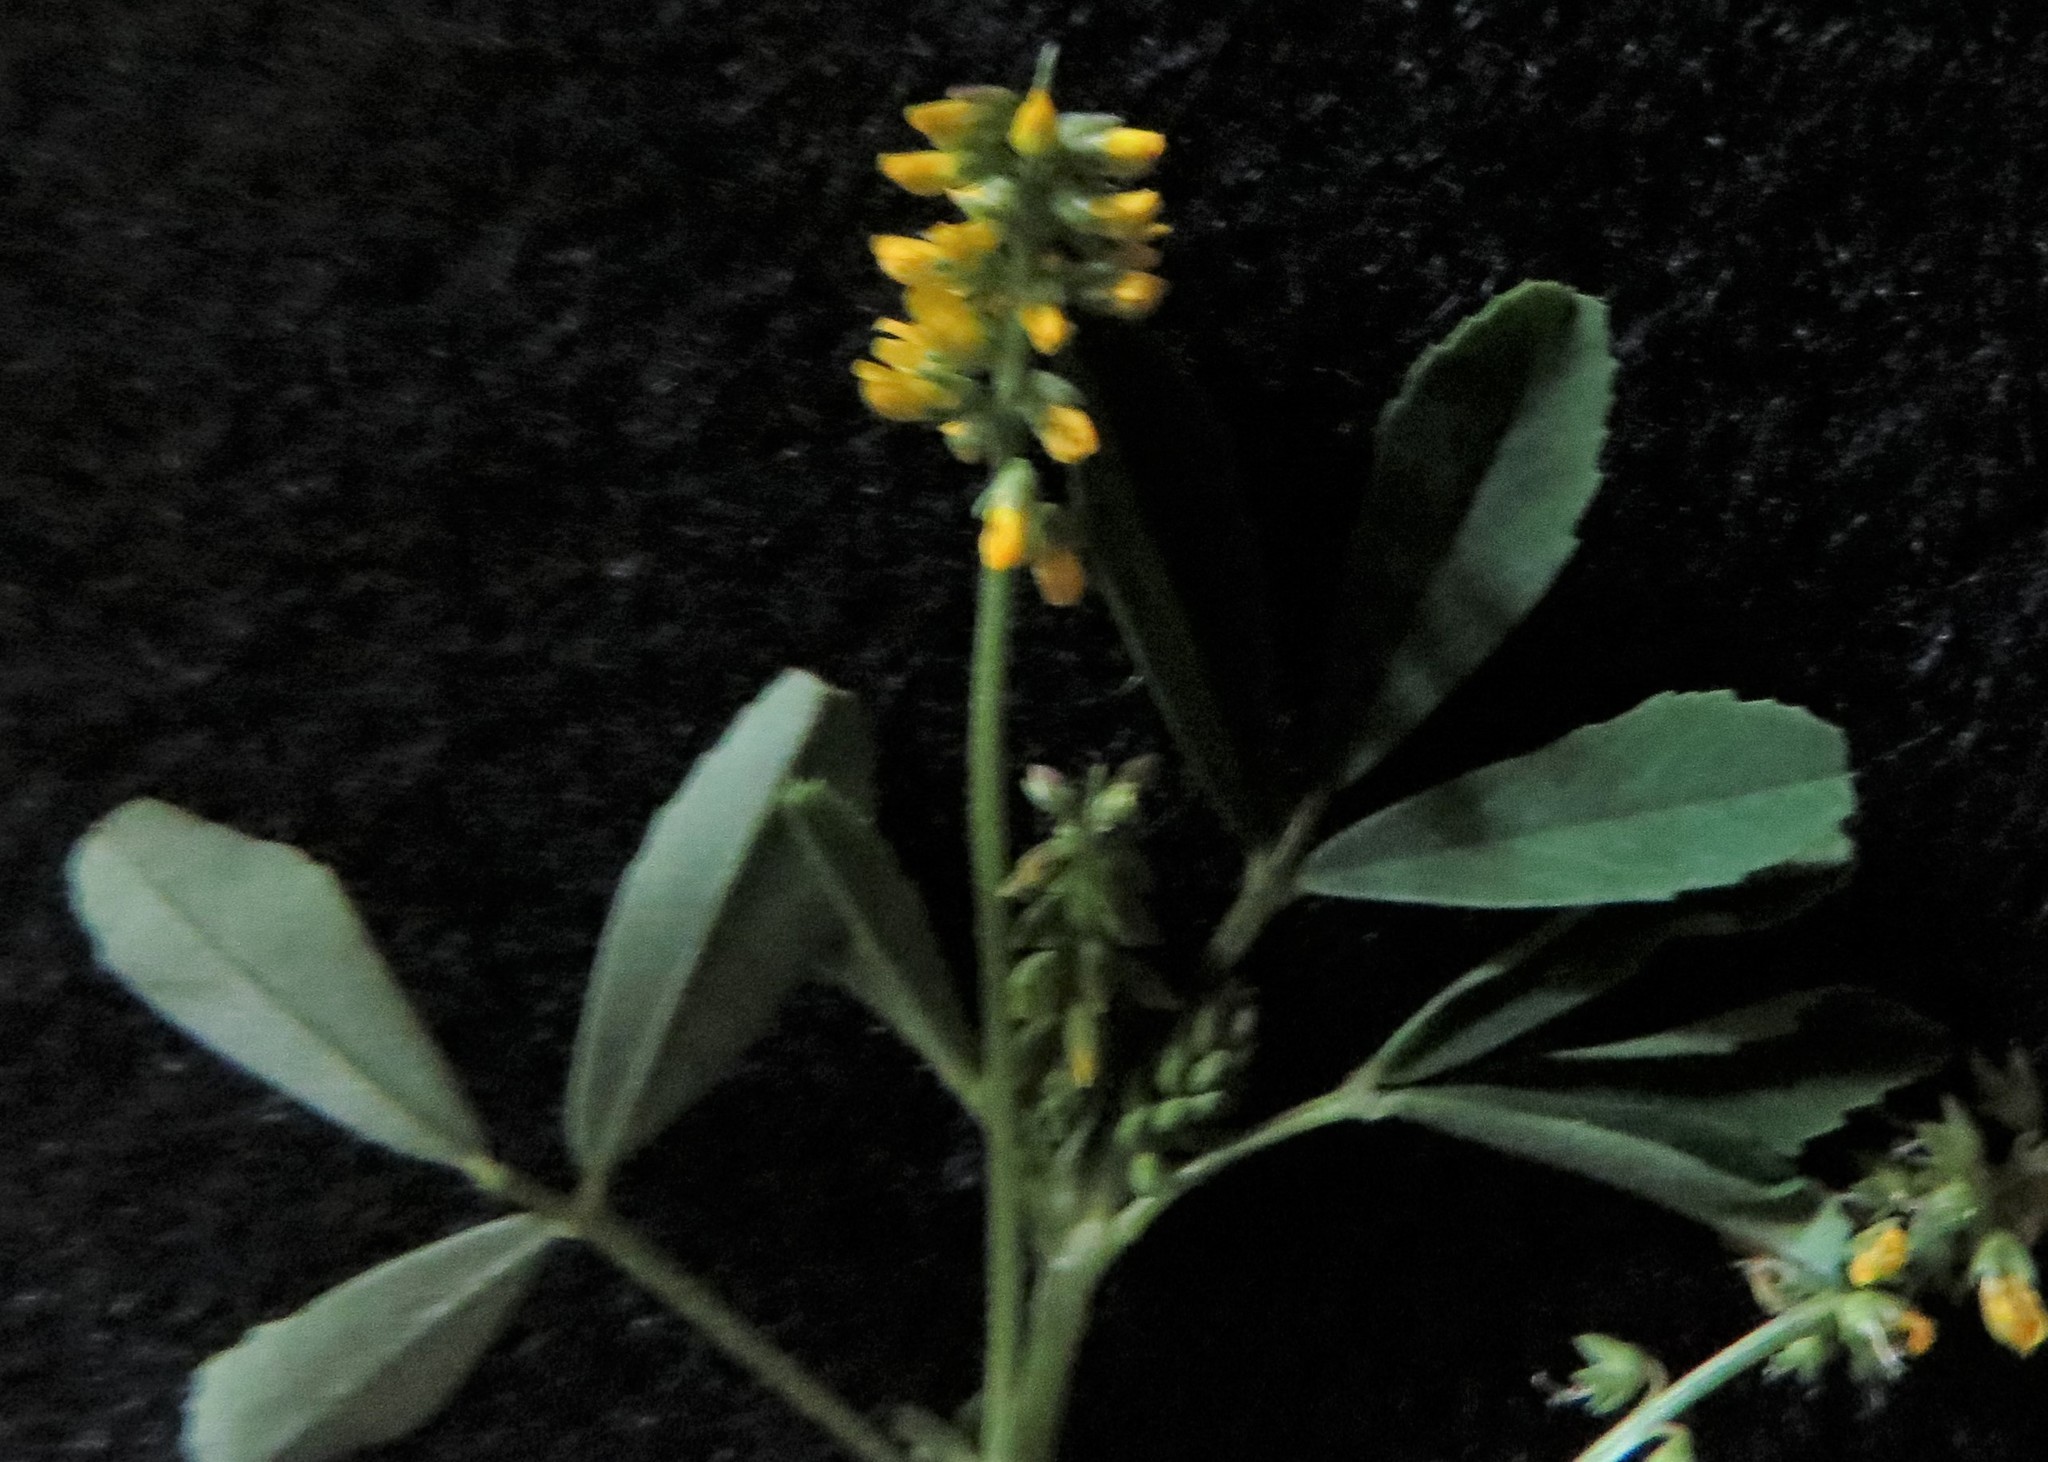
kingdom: Plantae
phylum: Tracheophyta
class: Magnoliopsida
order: Fabales
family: Fabaceae
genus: Melilotus
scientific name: Melilotus indicus
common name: Small melilot
